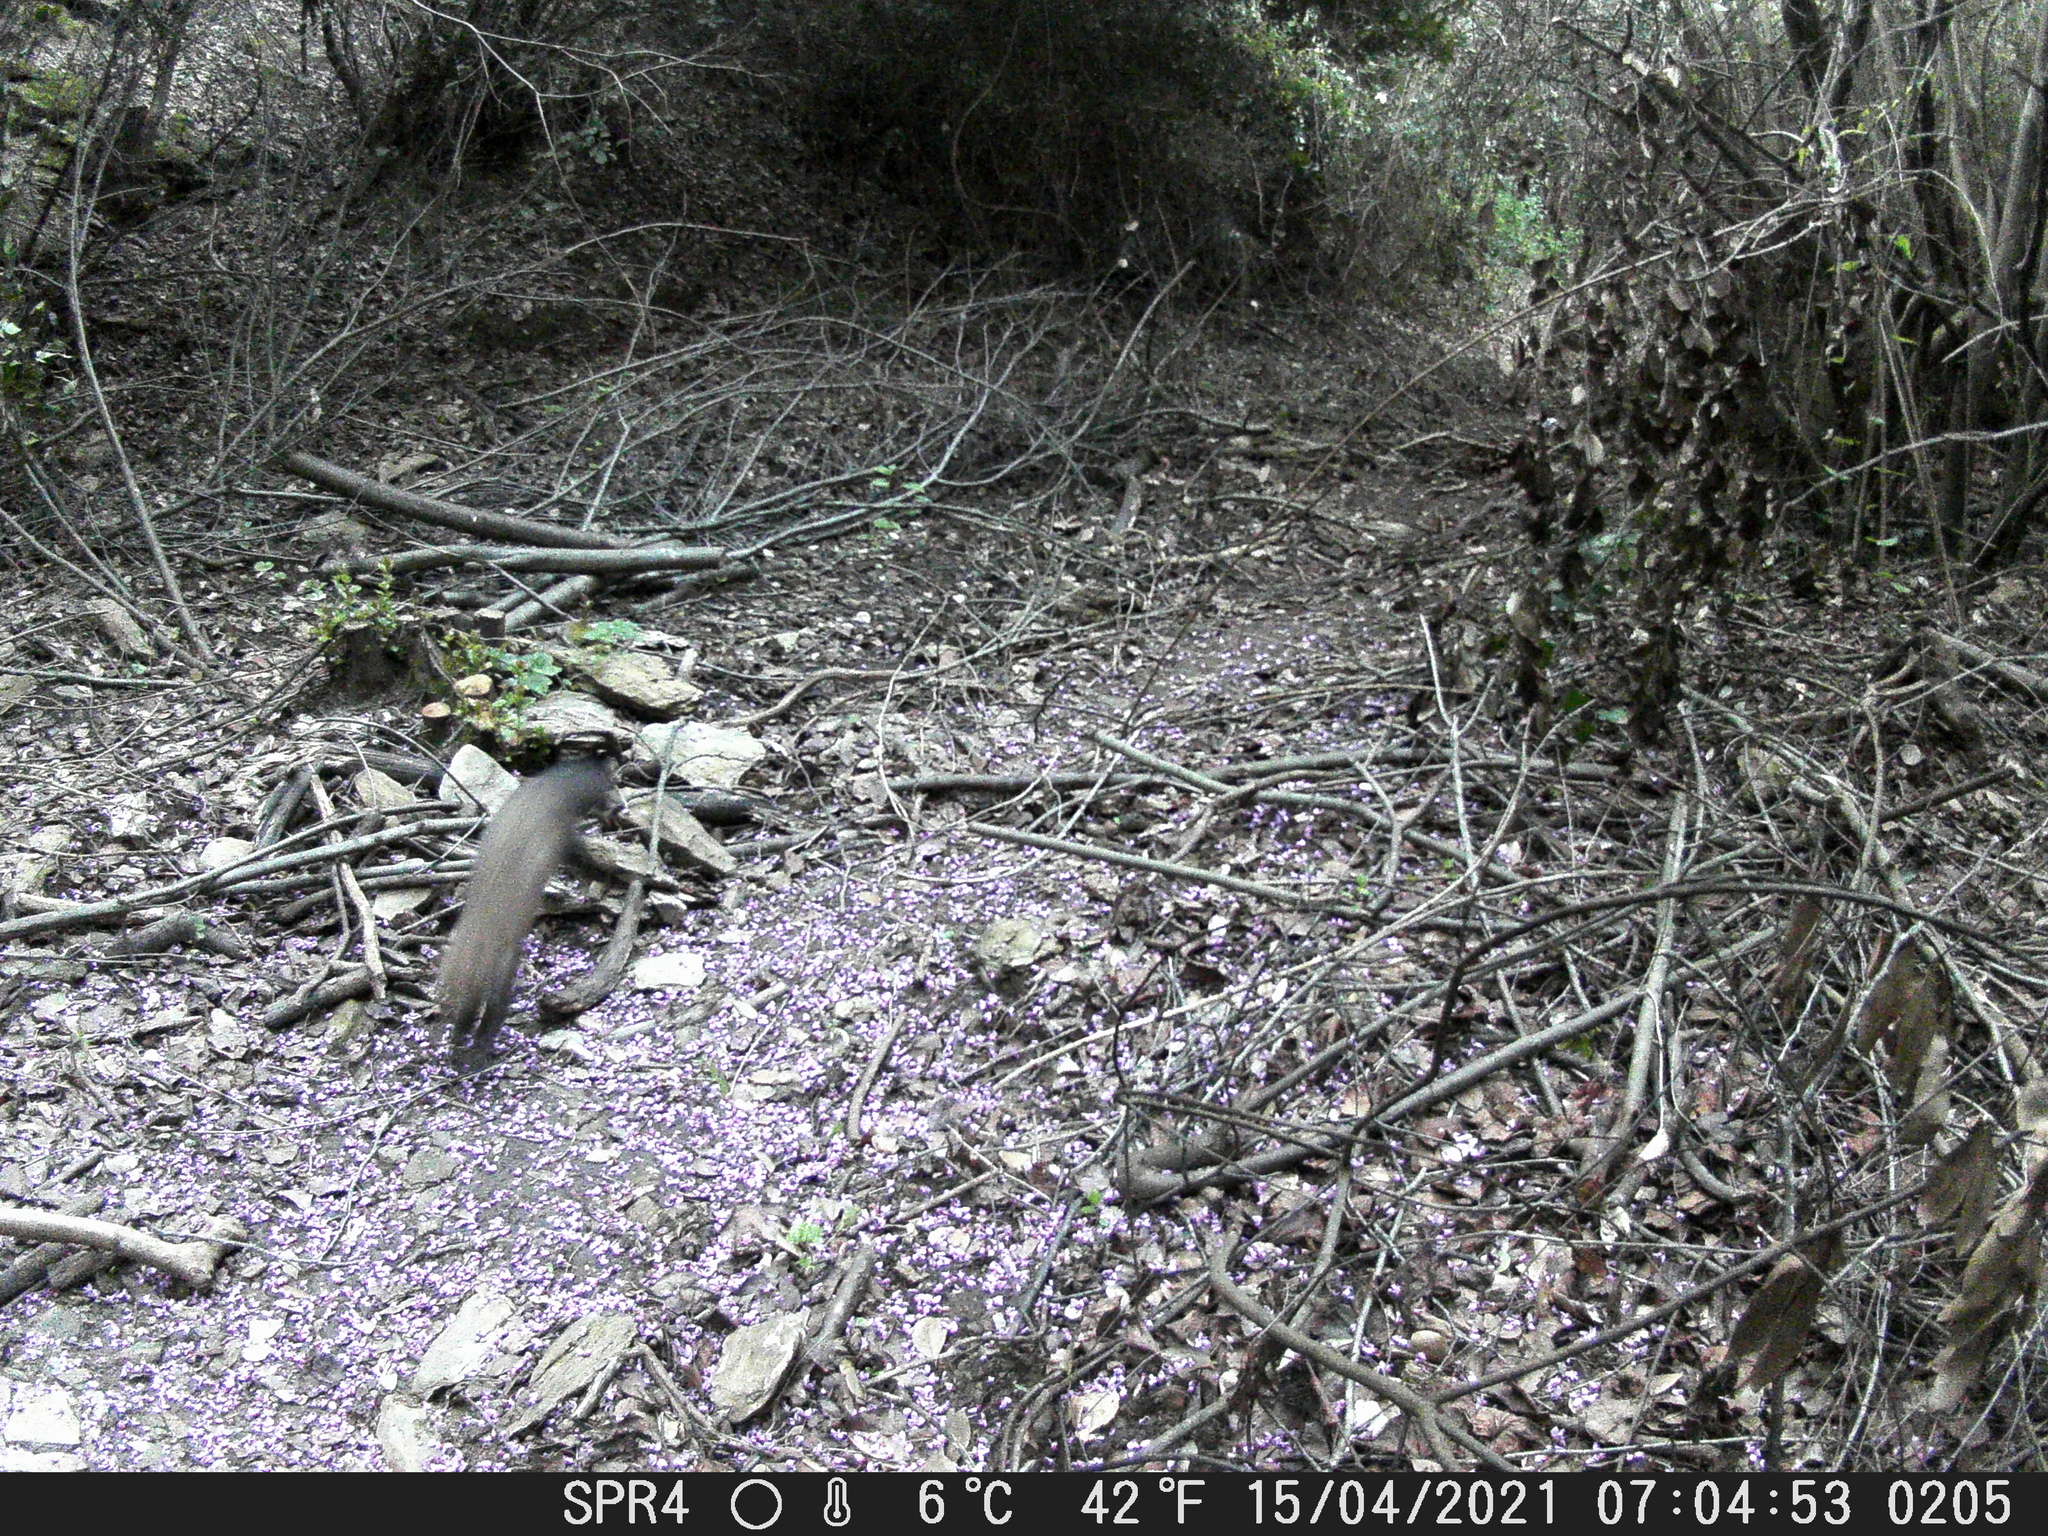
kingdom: Animalia
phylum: Chordata
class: Mammalia
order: Carnivora
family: Mustelidae
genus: Martes
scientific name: Martes foina
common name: Beech marten
